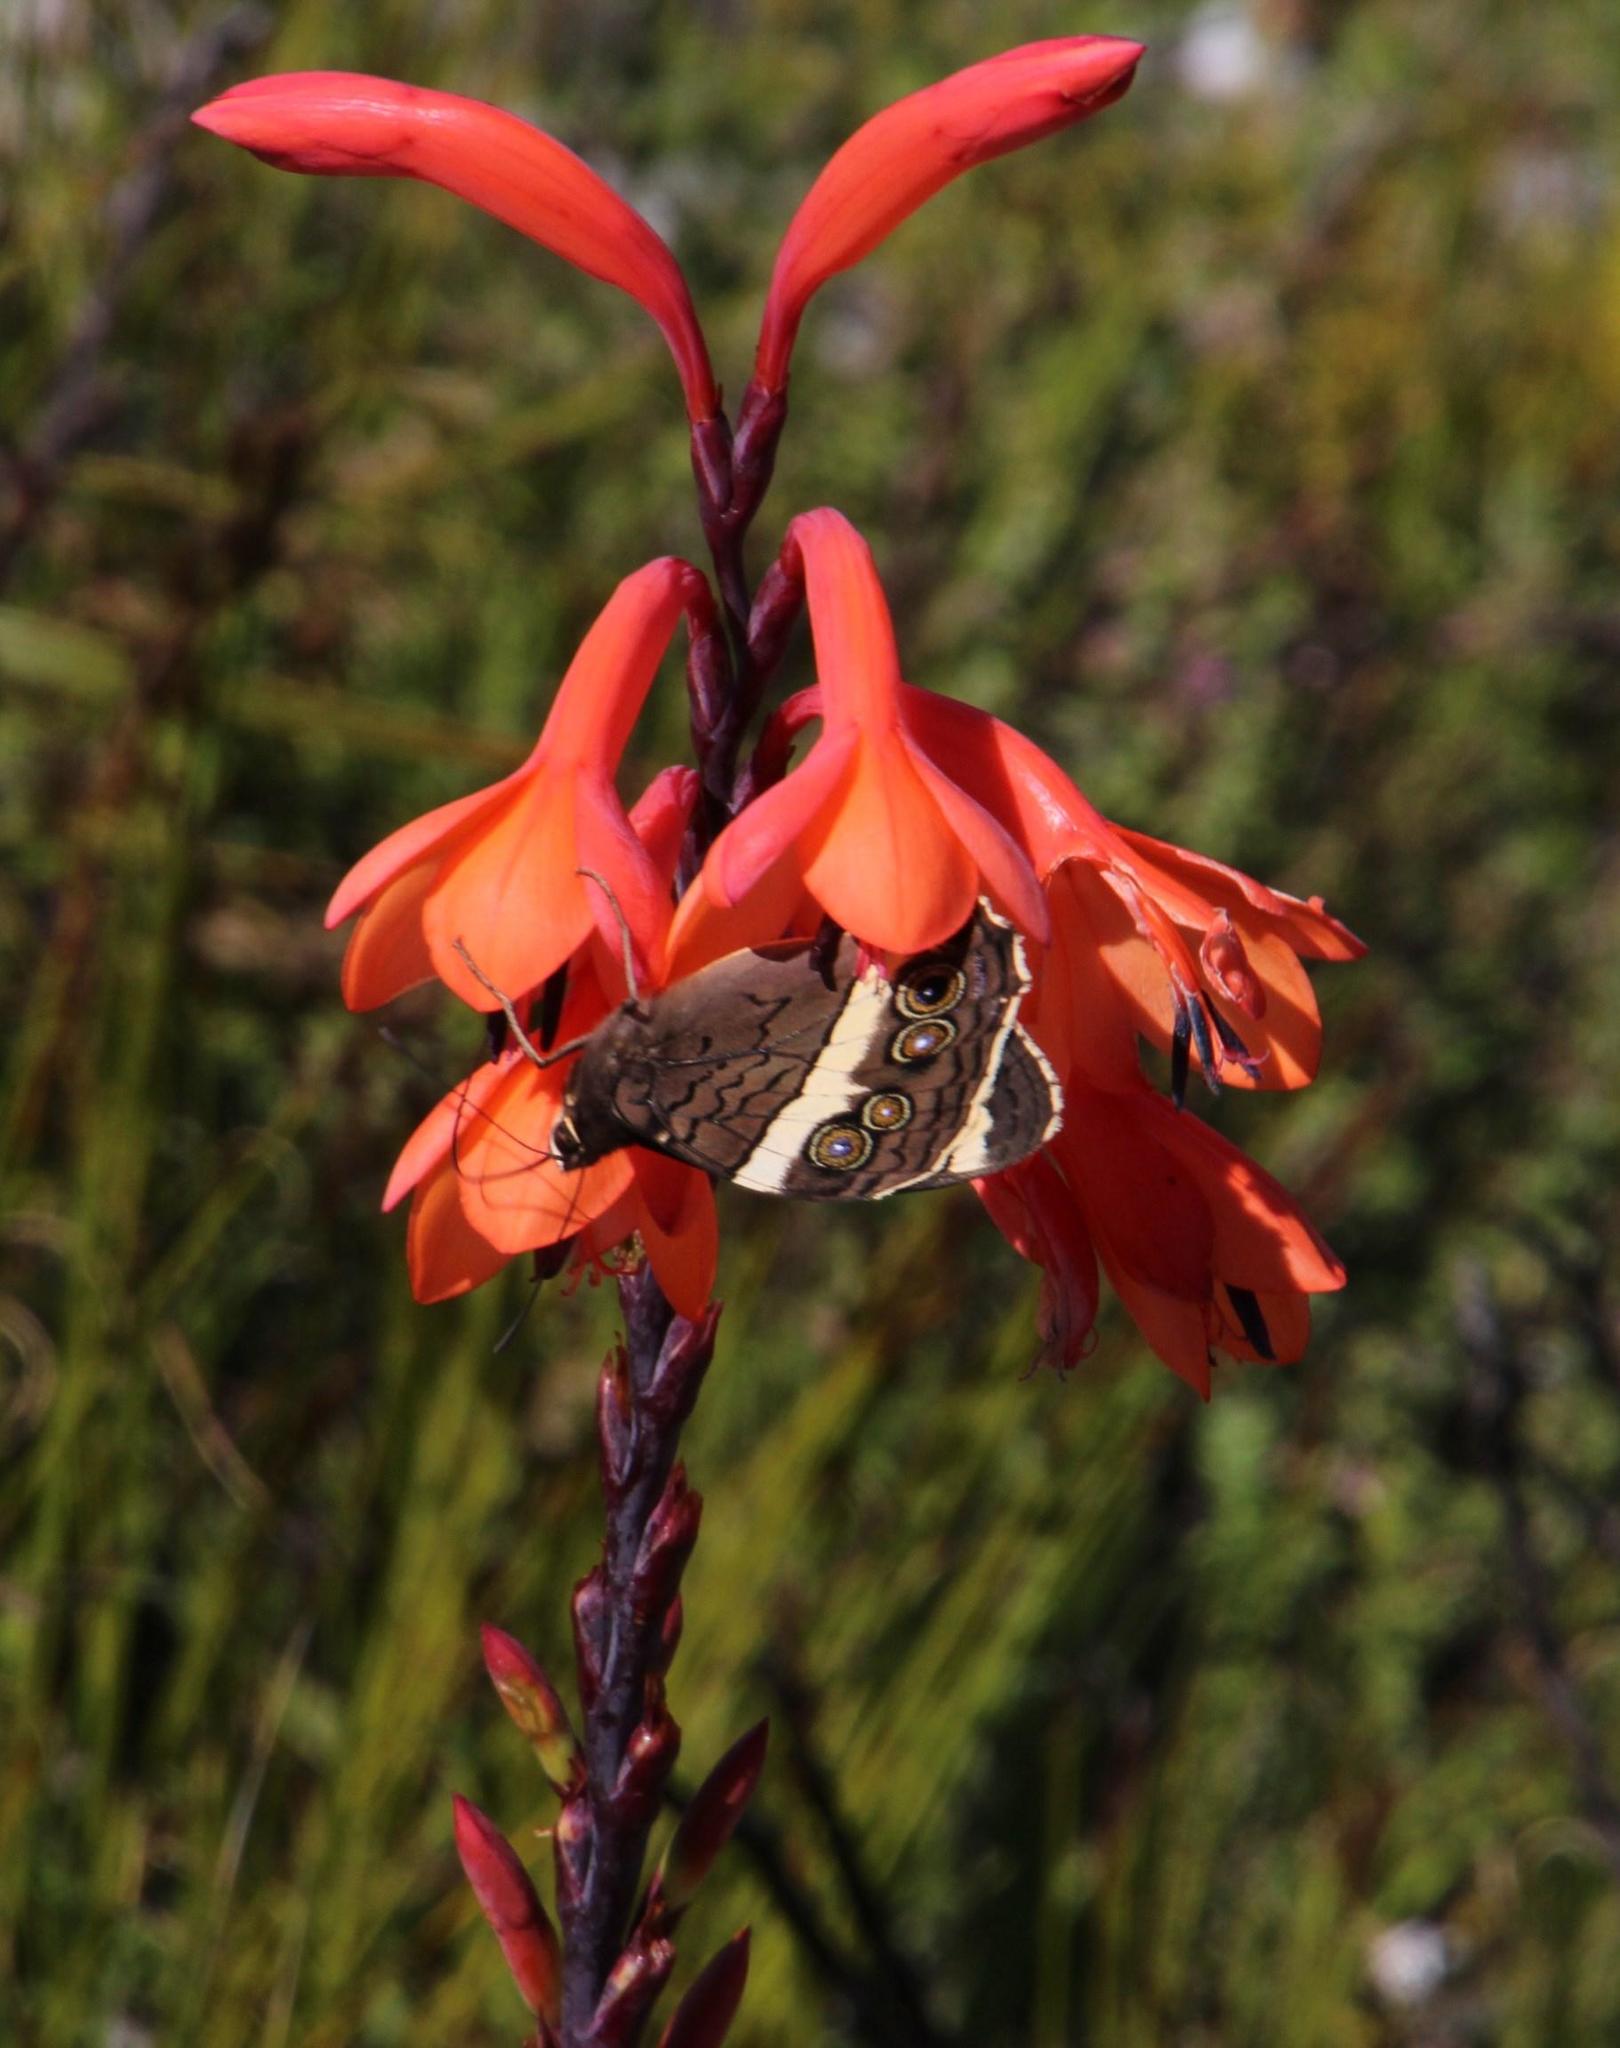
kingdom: Plantae
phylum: Tracheophyta
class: Liliopsida
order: Asparagales
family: Iridaceae
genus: Watsonia
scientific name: Watsonia tabularis
